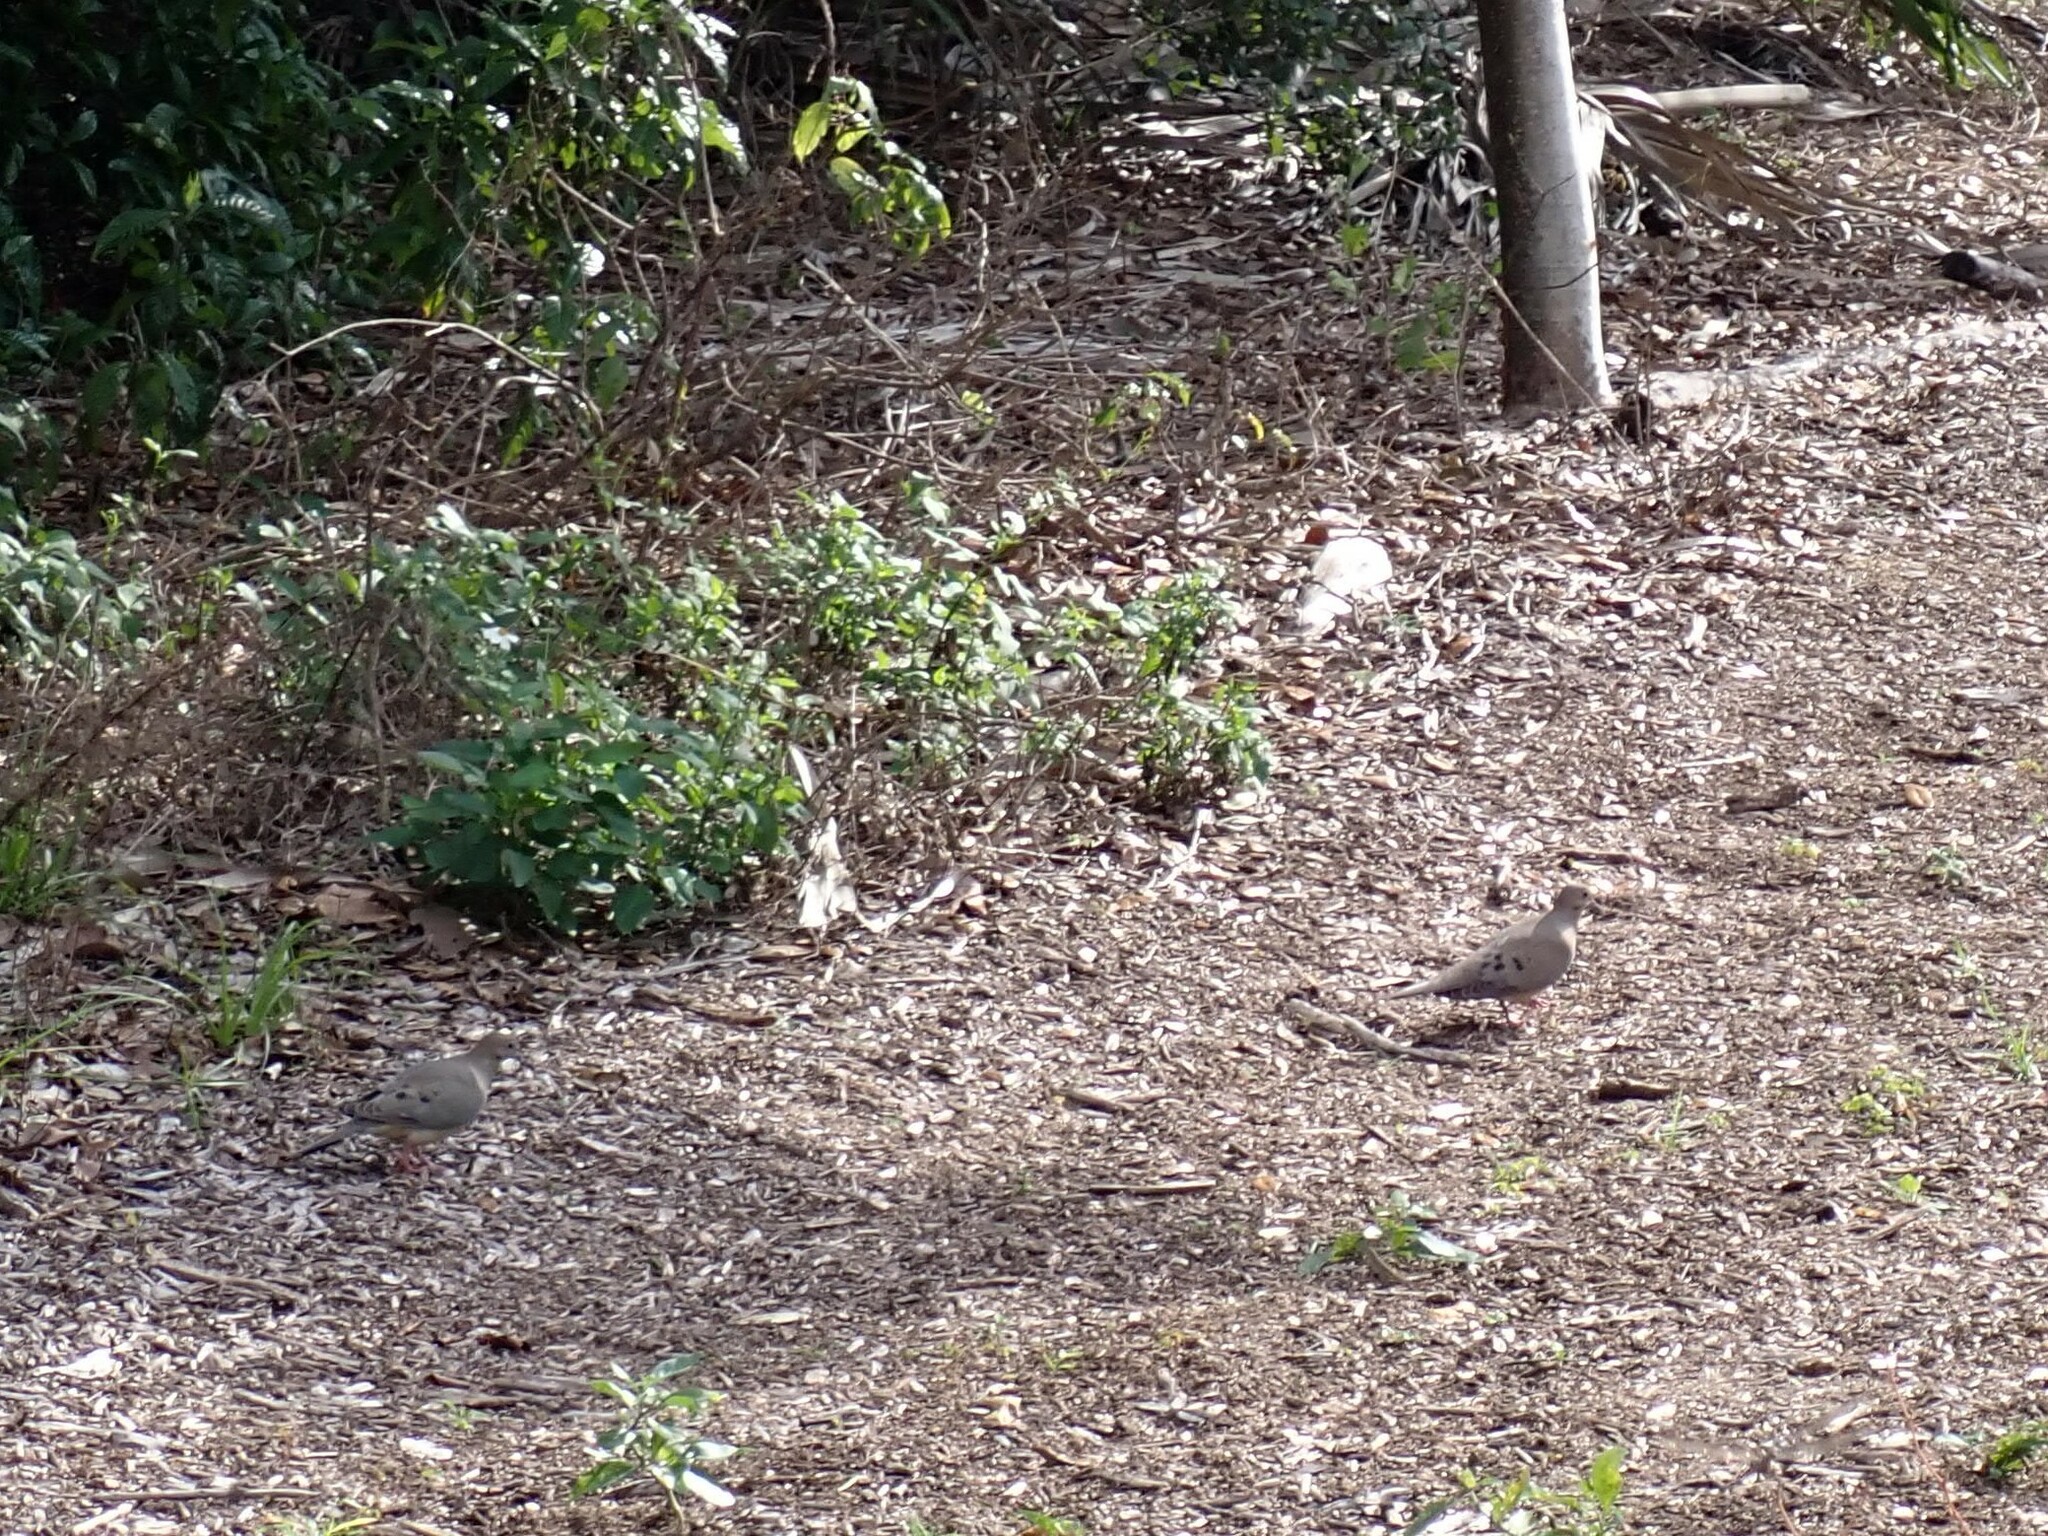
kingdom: Animalia
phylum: Chordata
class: Aves
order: Columbiformes
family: Columbidae
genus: Zenaida
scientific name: Zenaida macroura
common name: Mourning dove
